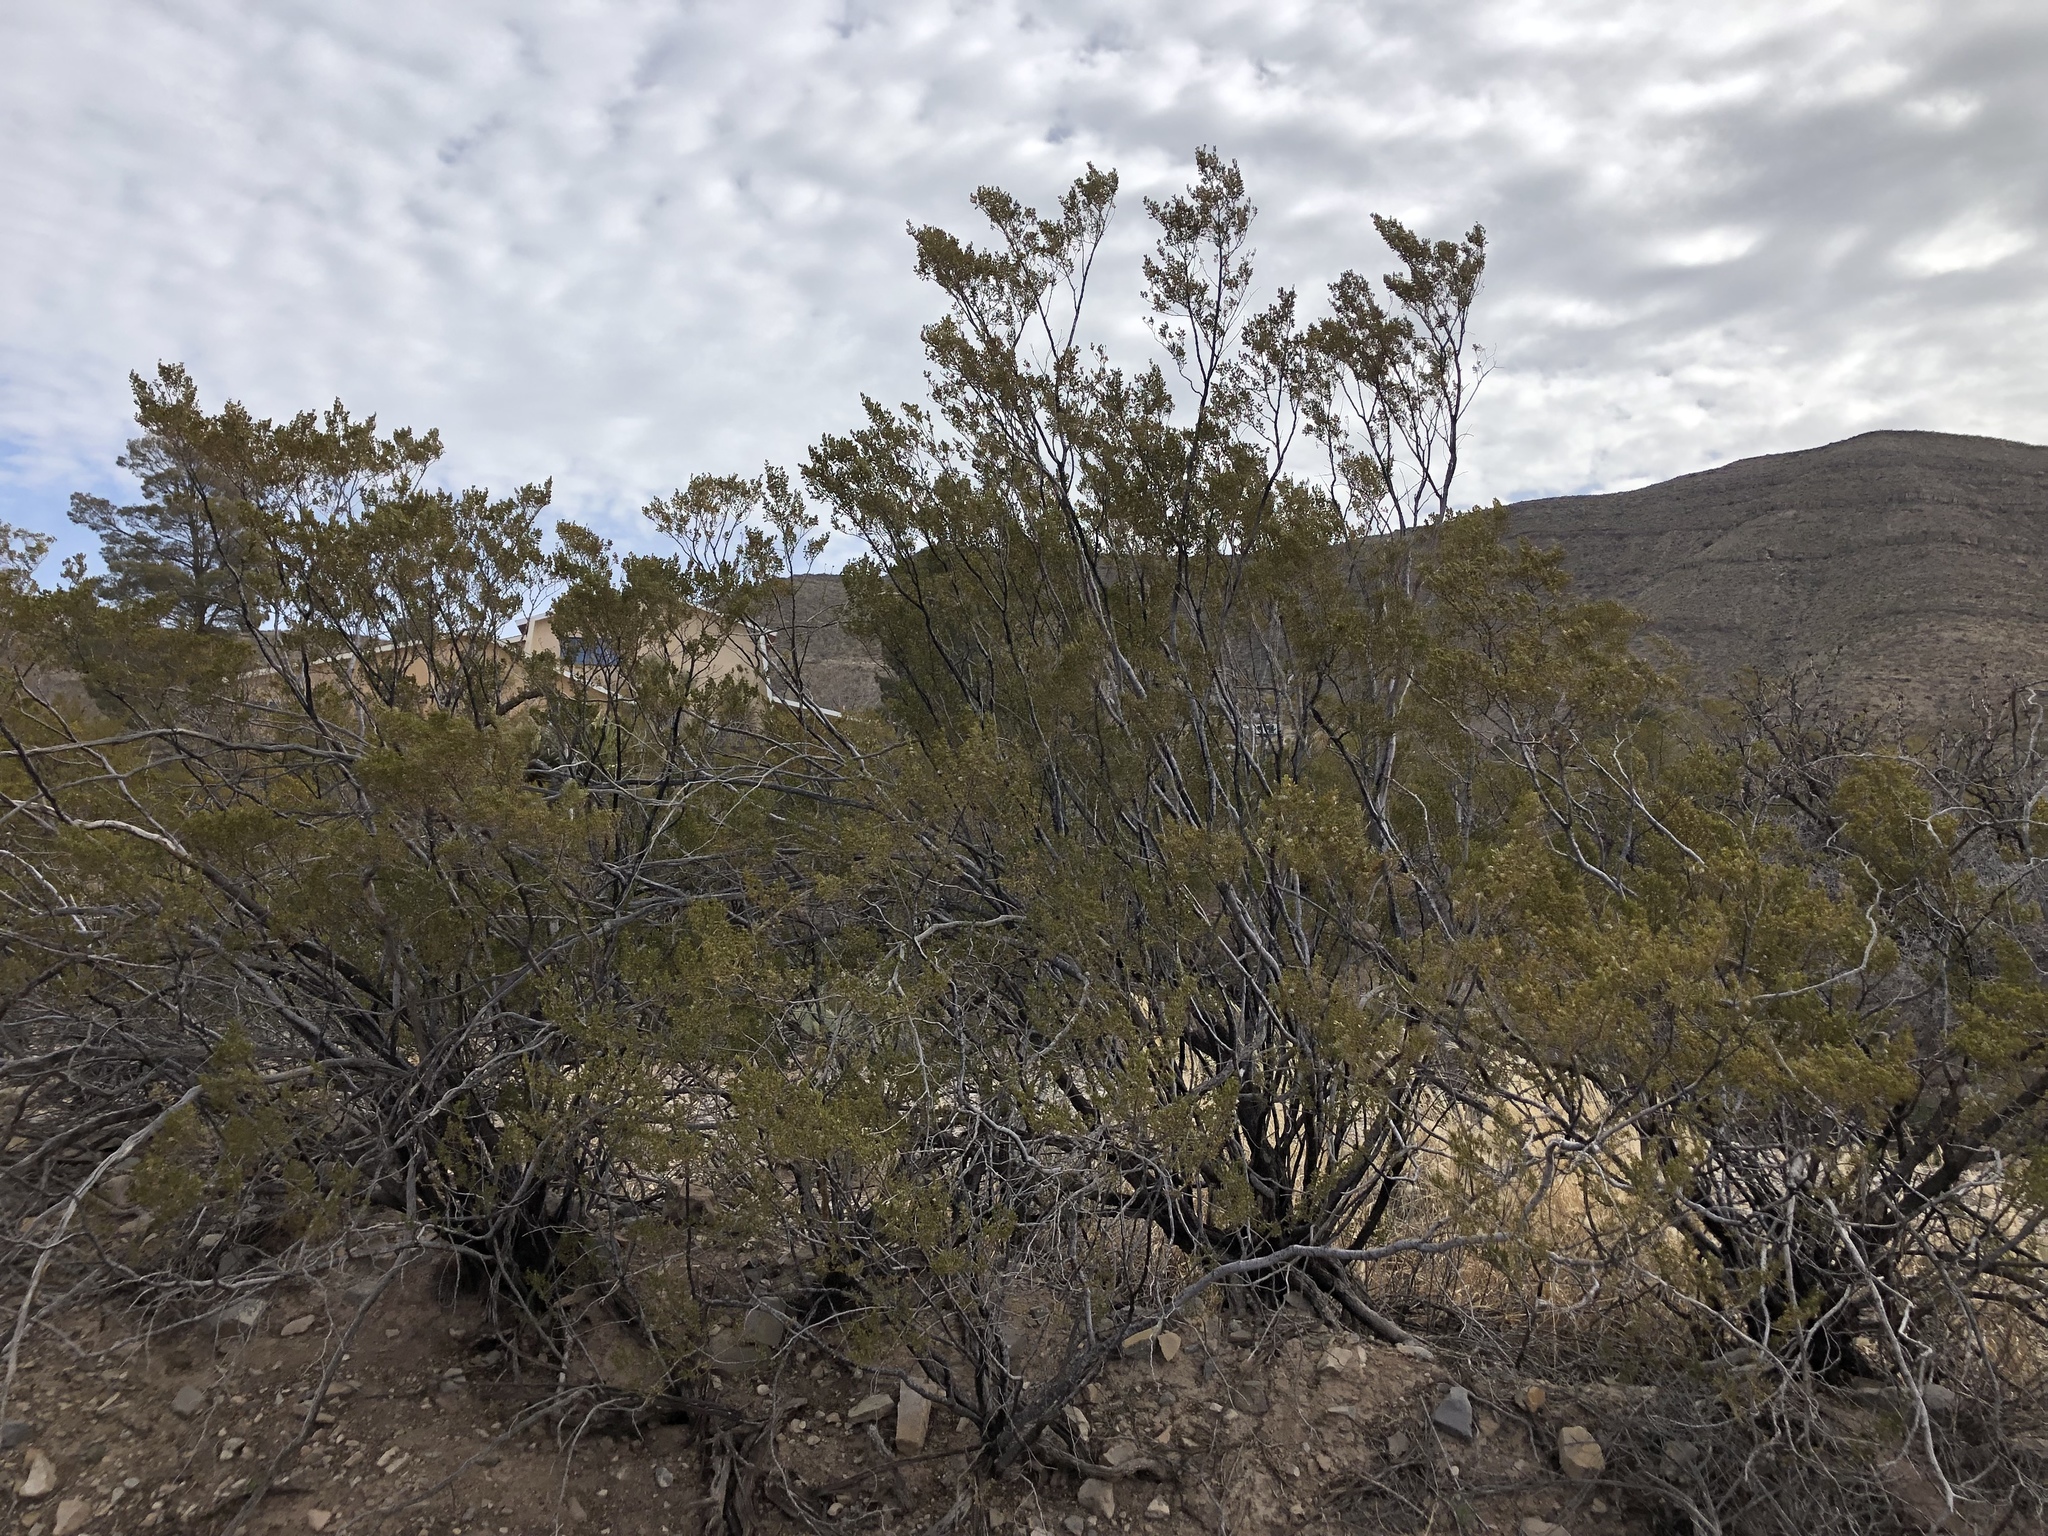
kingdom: Plantae
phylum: Tracheophyta
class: Magnoliopsida
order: Zygophyllales
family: Zygophyllaceae
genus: Larrea
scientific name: Larrea tridentata
